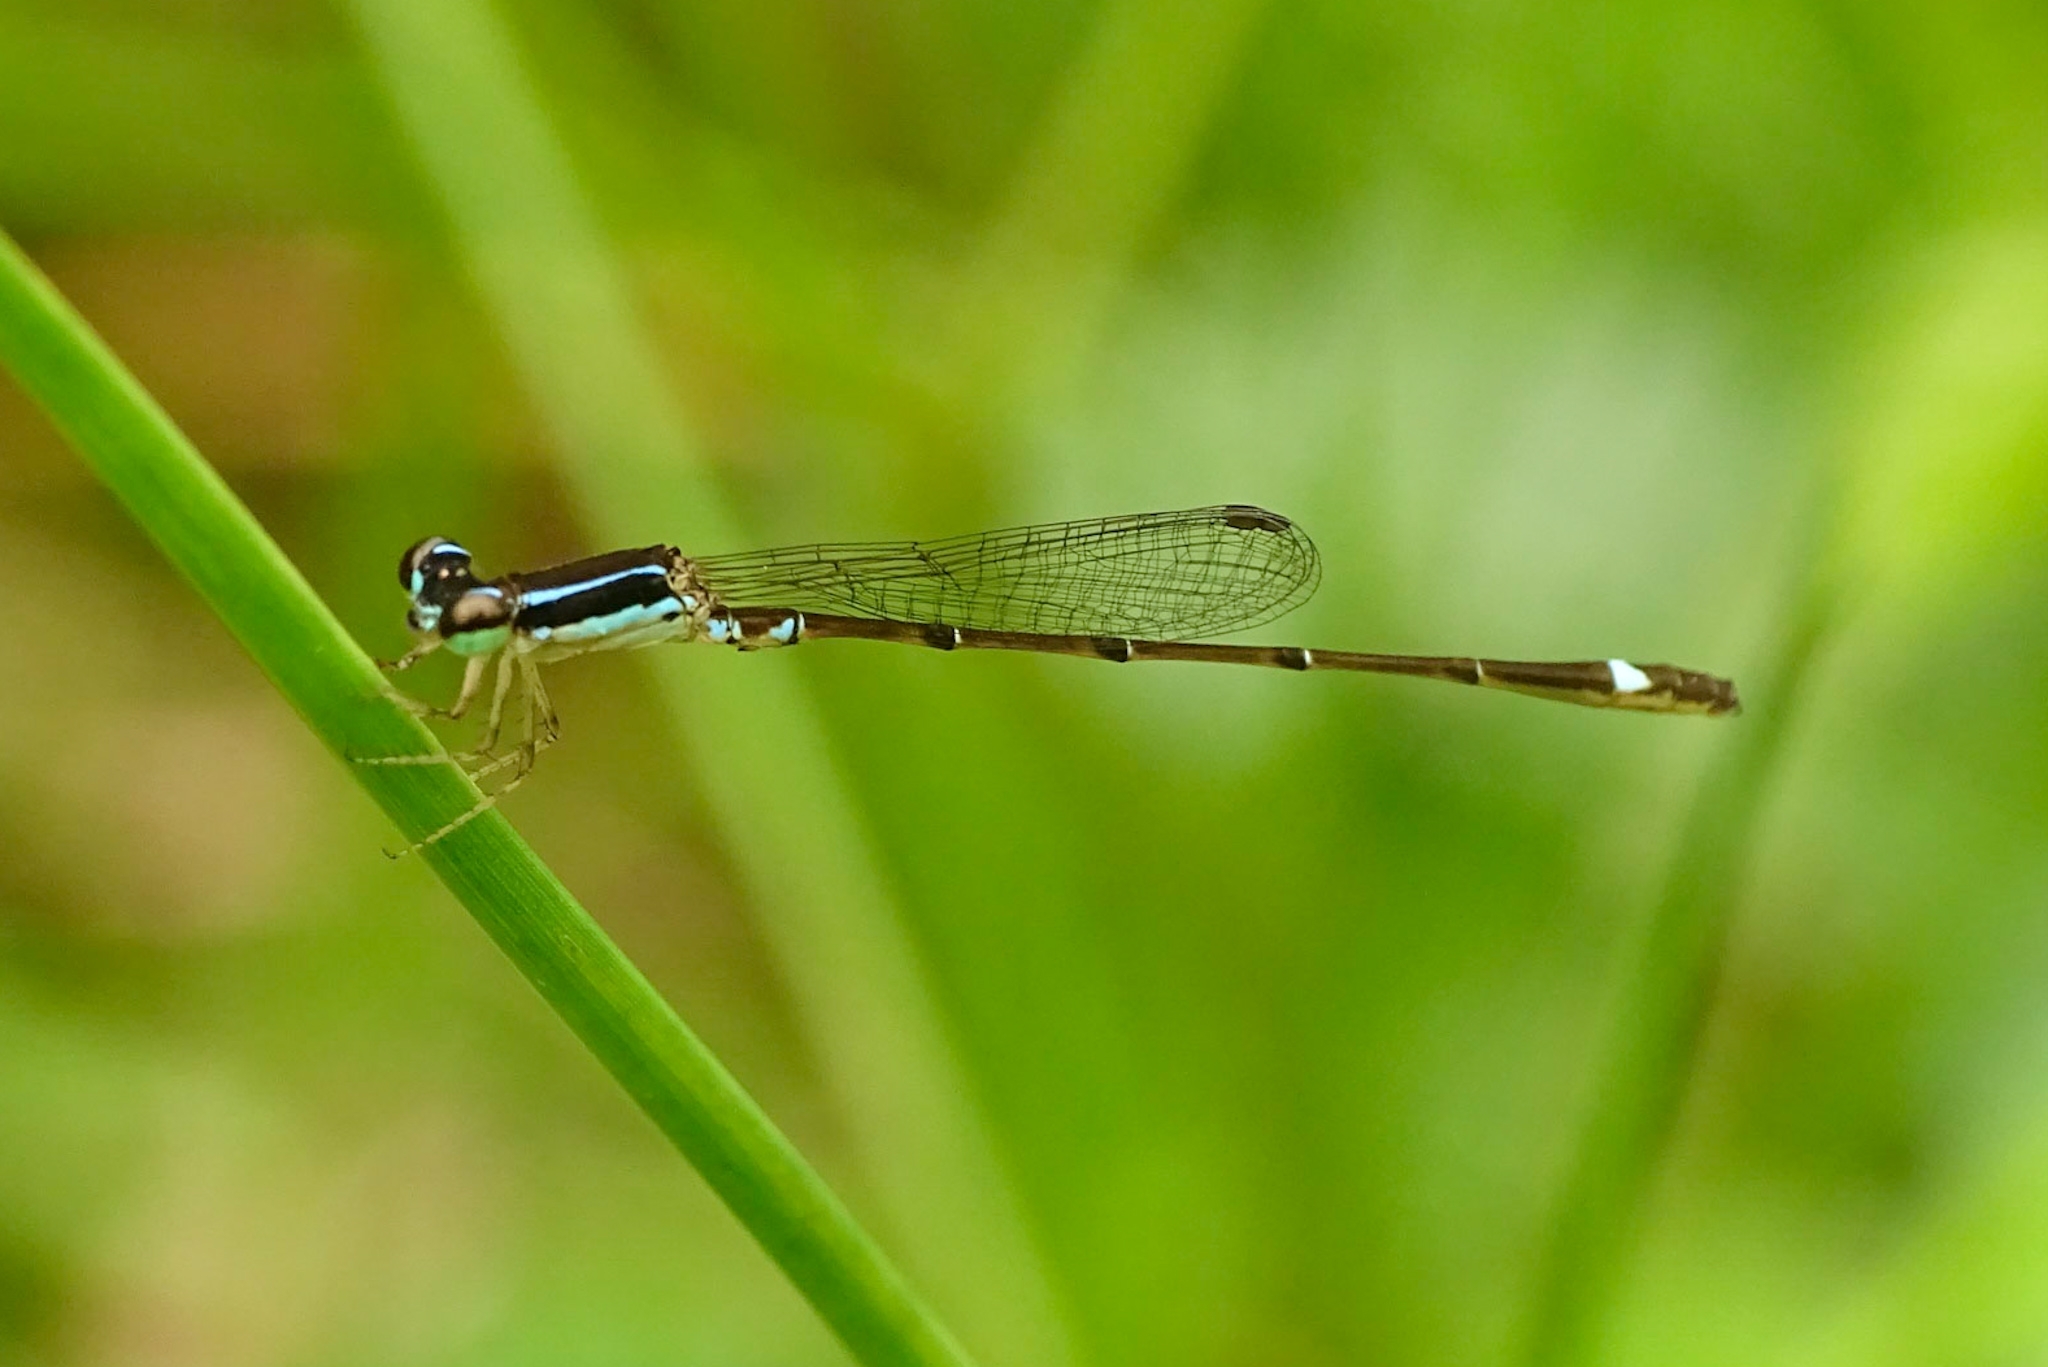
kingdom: Animalia
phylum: Arthropoda
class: Insecta
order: Odonata
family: Coenagrionidae
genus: Mortonagrion
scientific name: Mortonagrion varralli
